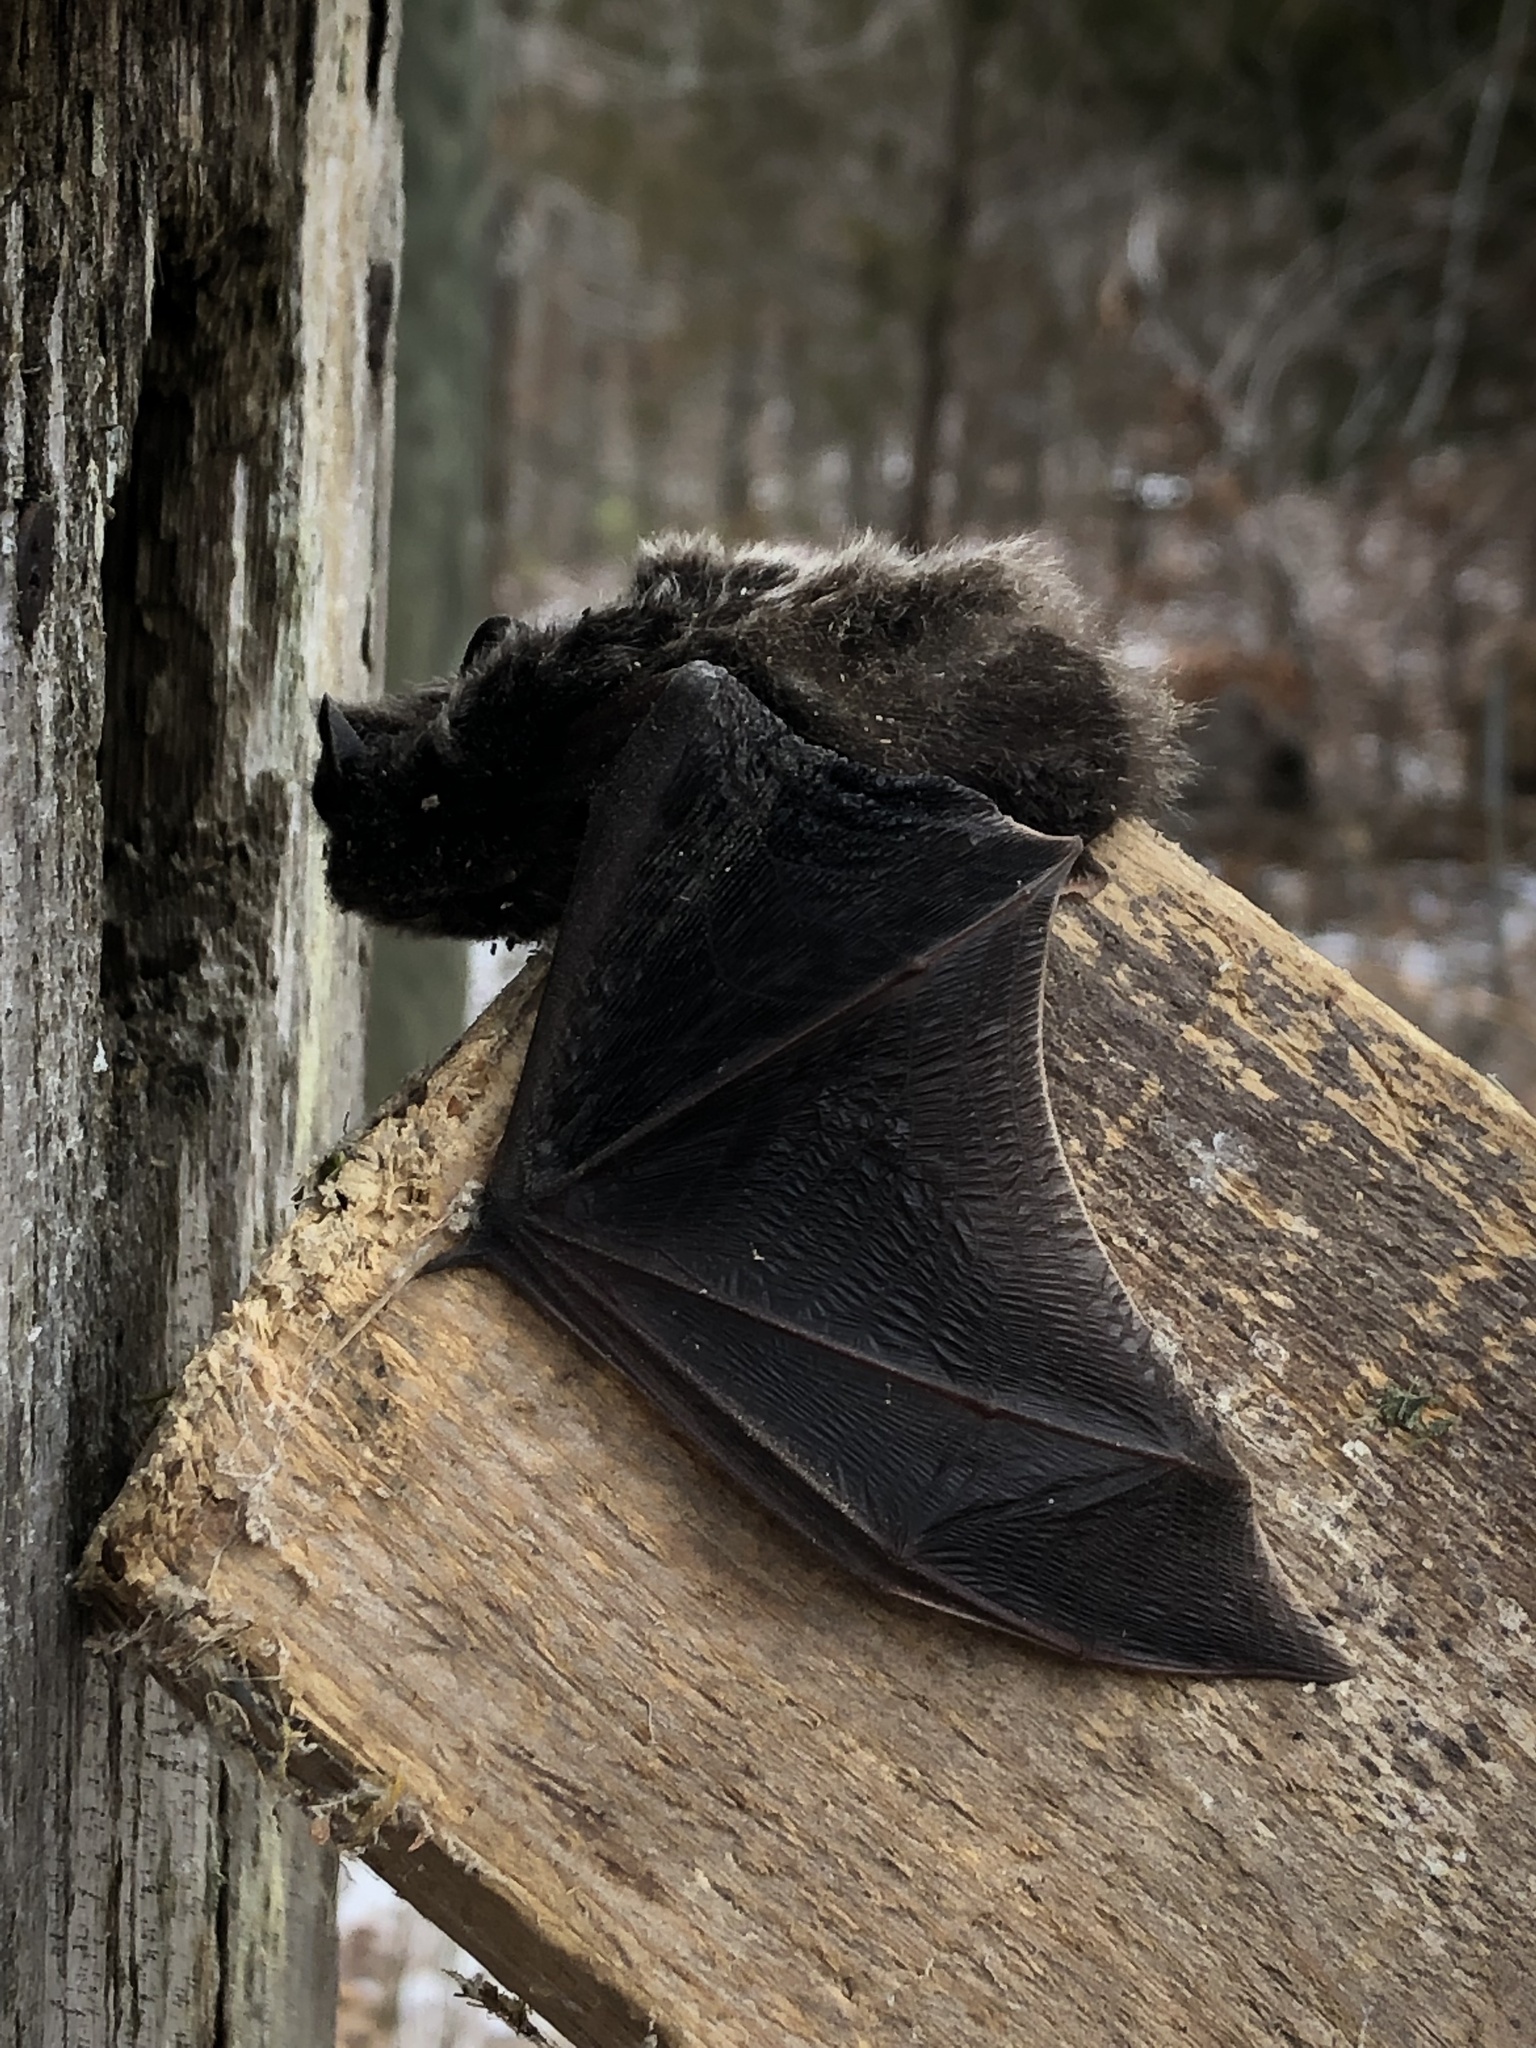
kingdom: Animalia
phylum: Chordata
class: Mammalia
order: Chiroptera
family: Vespertilionidae
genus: Lasionycteris
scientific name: Lasionycteris noctivagans
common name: Silver-haired bat
